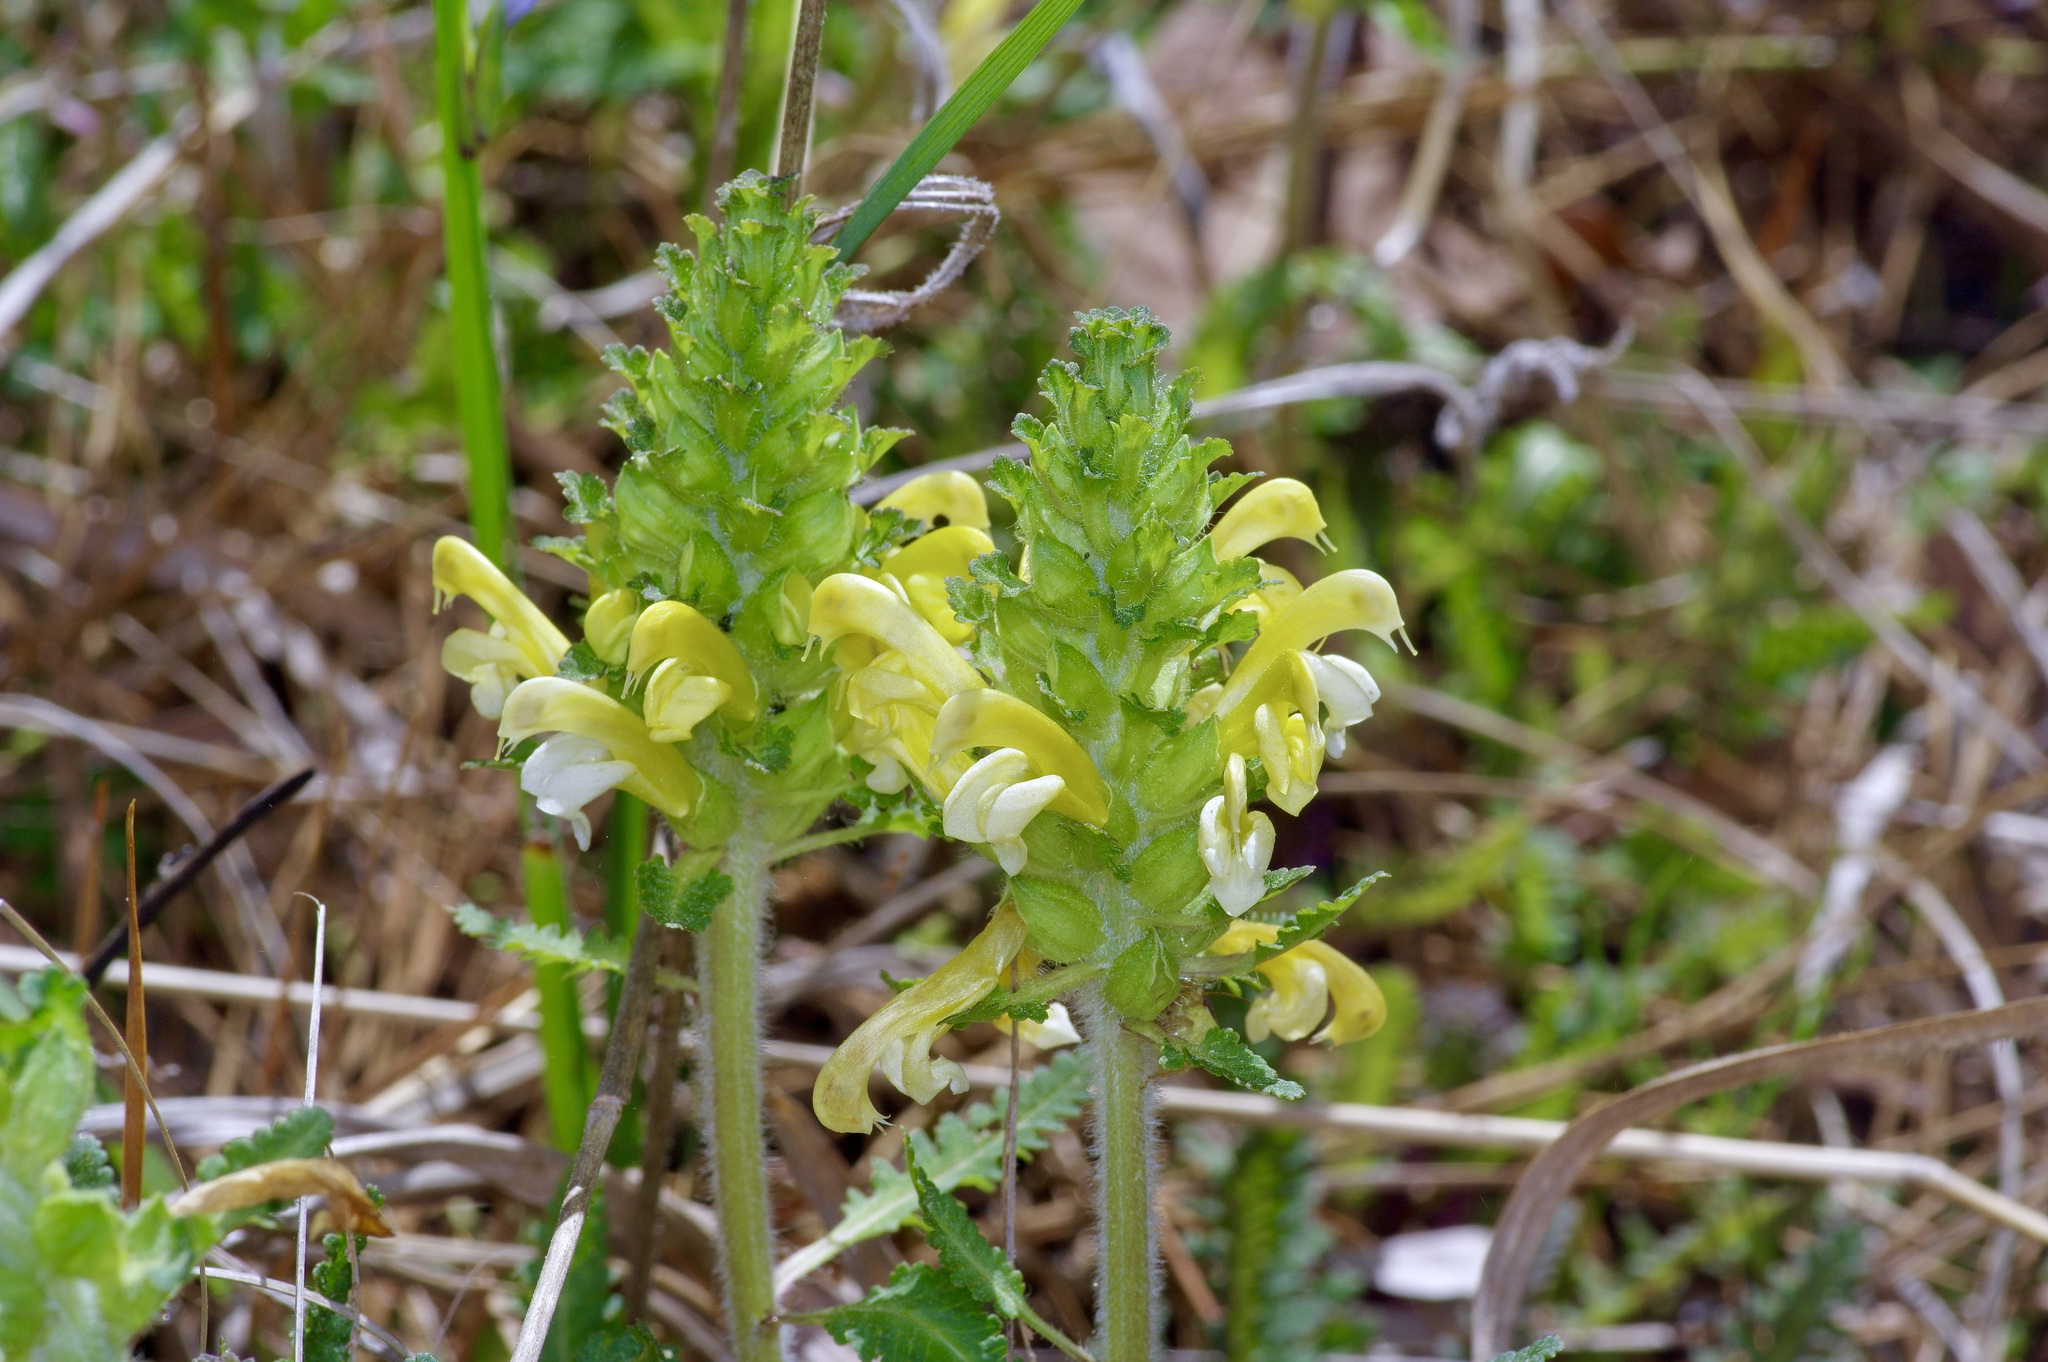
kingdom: Plantae
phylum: Tracheophyta
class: Magnoliopsida
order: Lamiales
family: Orobanchaceae
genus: Pedicularis
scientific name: Pedicularis canadensis
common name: Early lousewort
